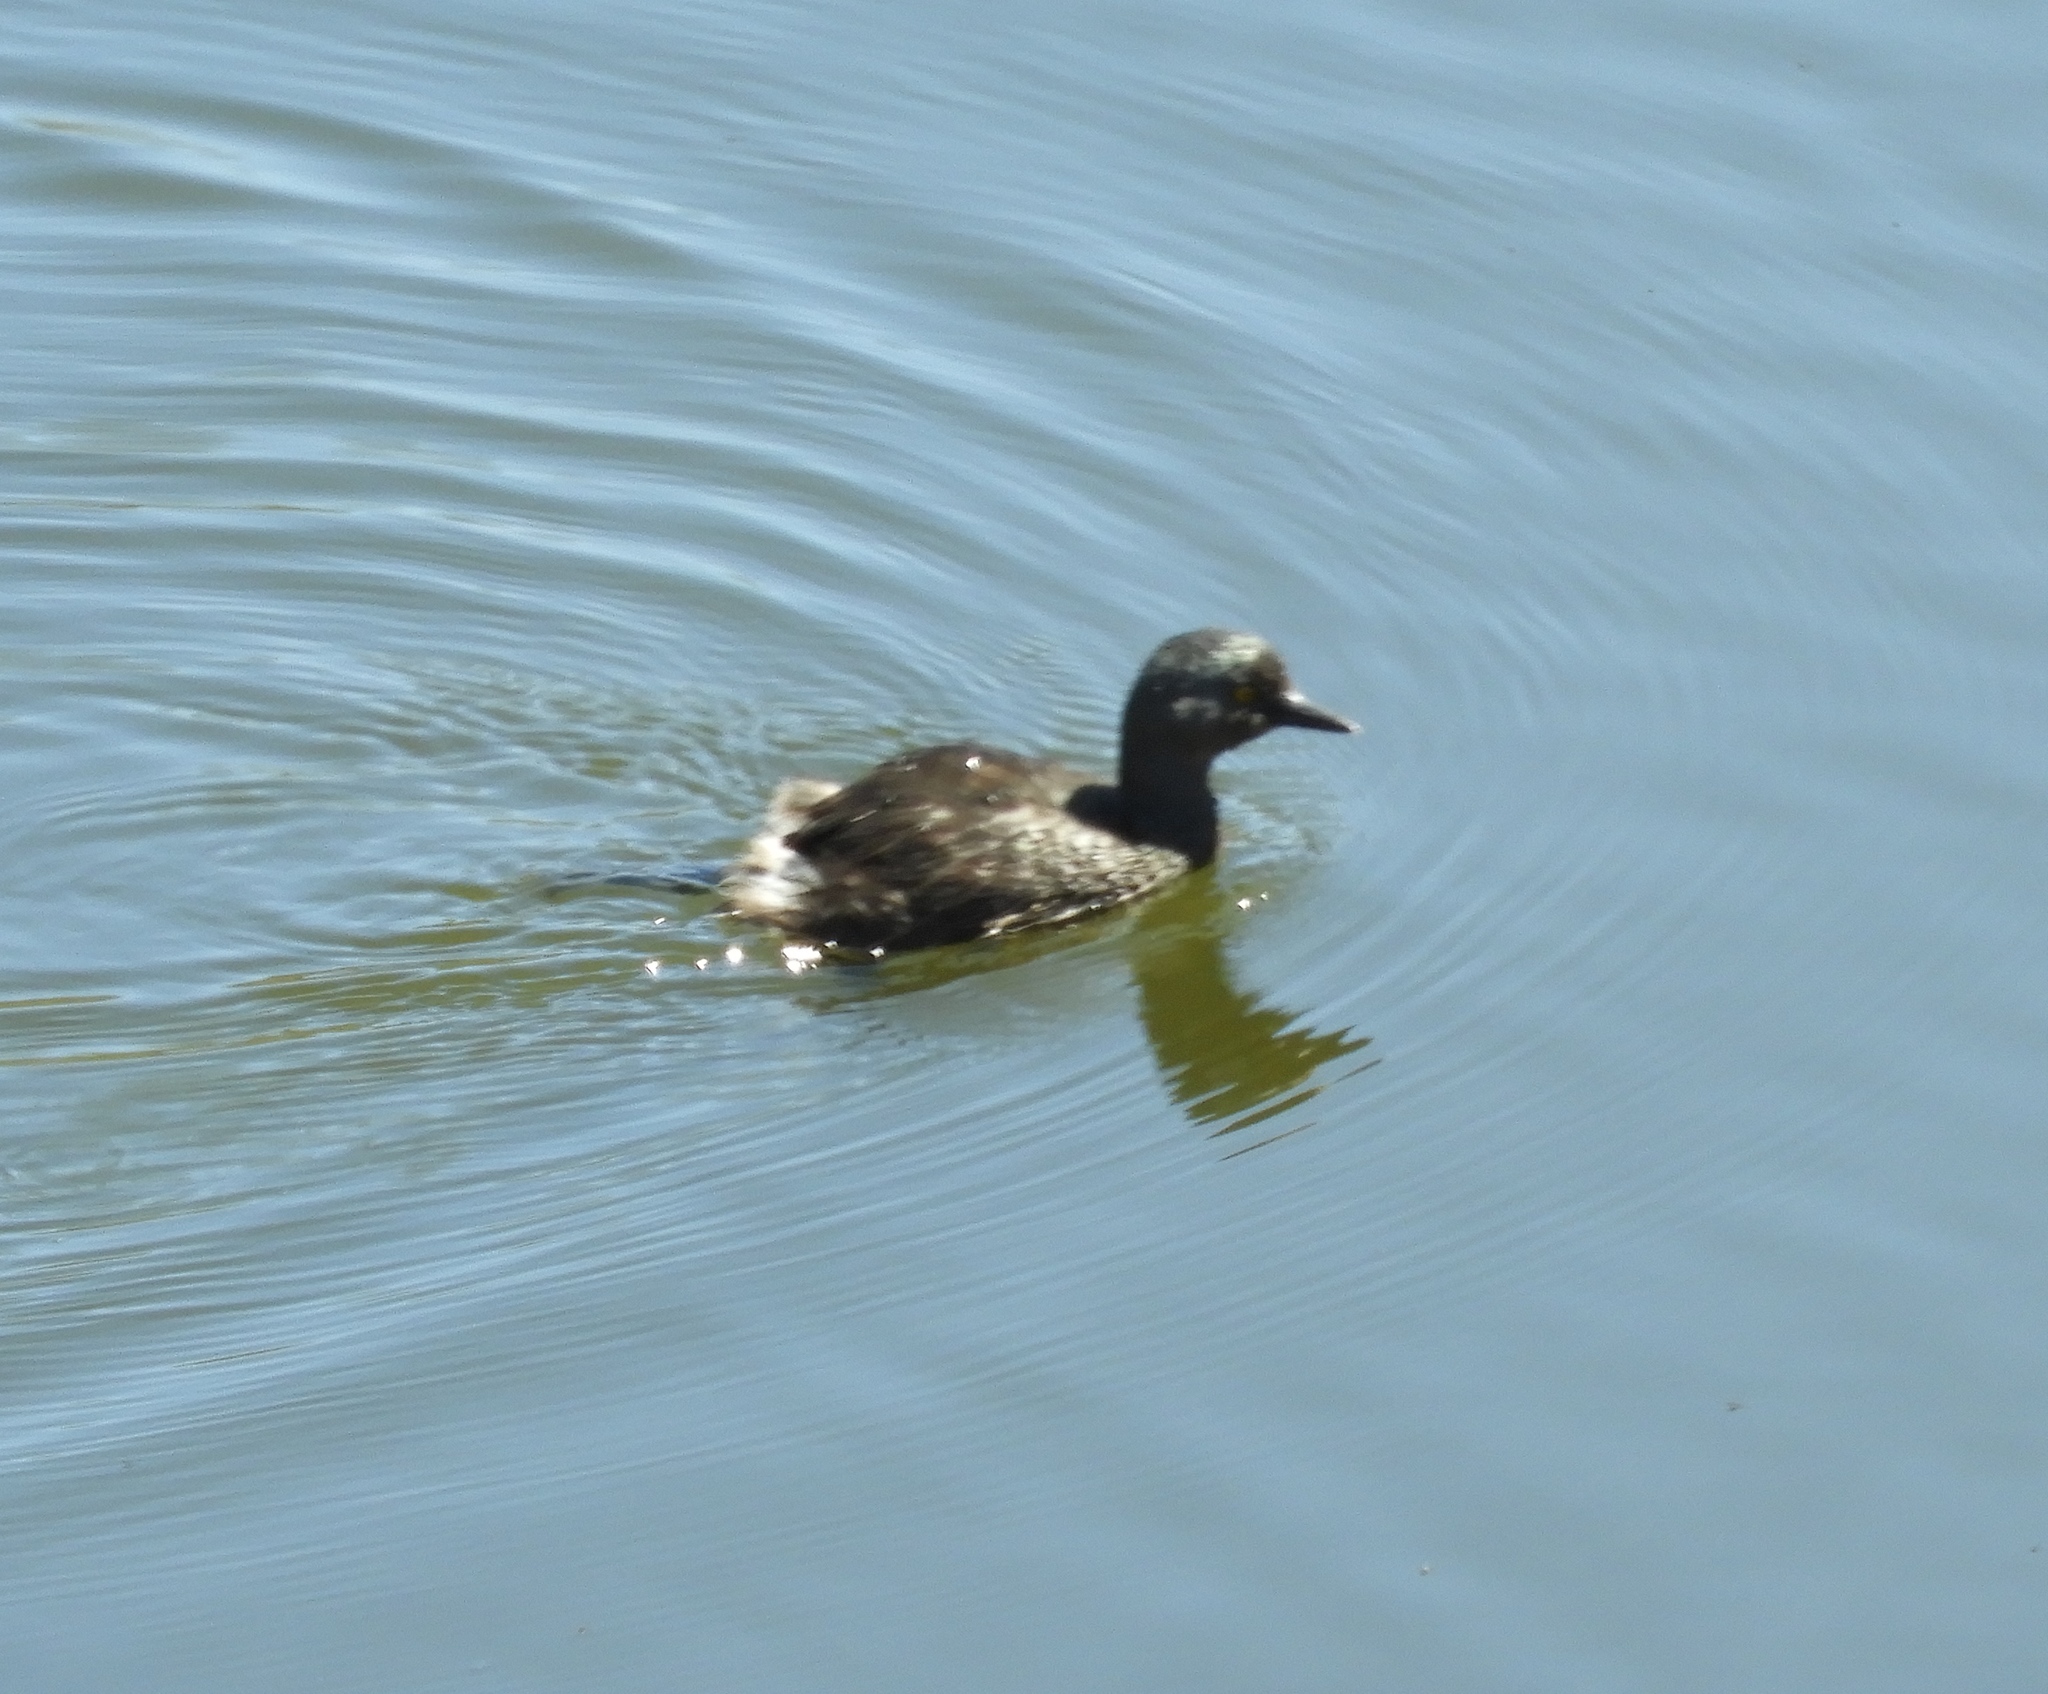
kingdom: Animalia
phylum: Chordata
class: Aves
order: Podicipediformes
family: Podicipedidae
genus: Tachybaptus
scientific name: Tachybaptus dominicus
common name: Least grebe
